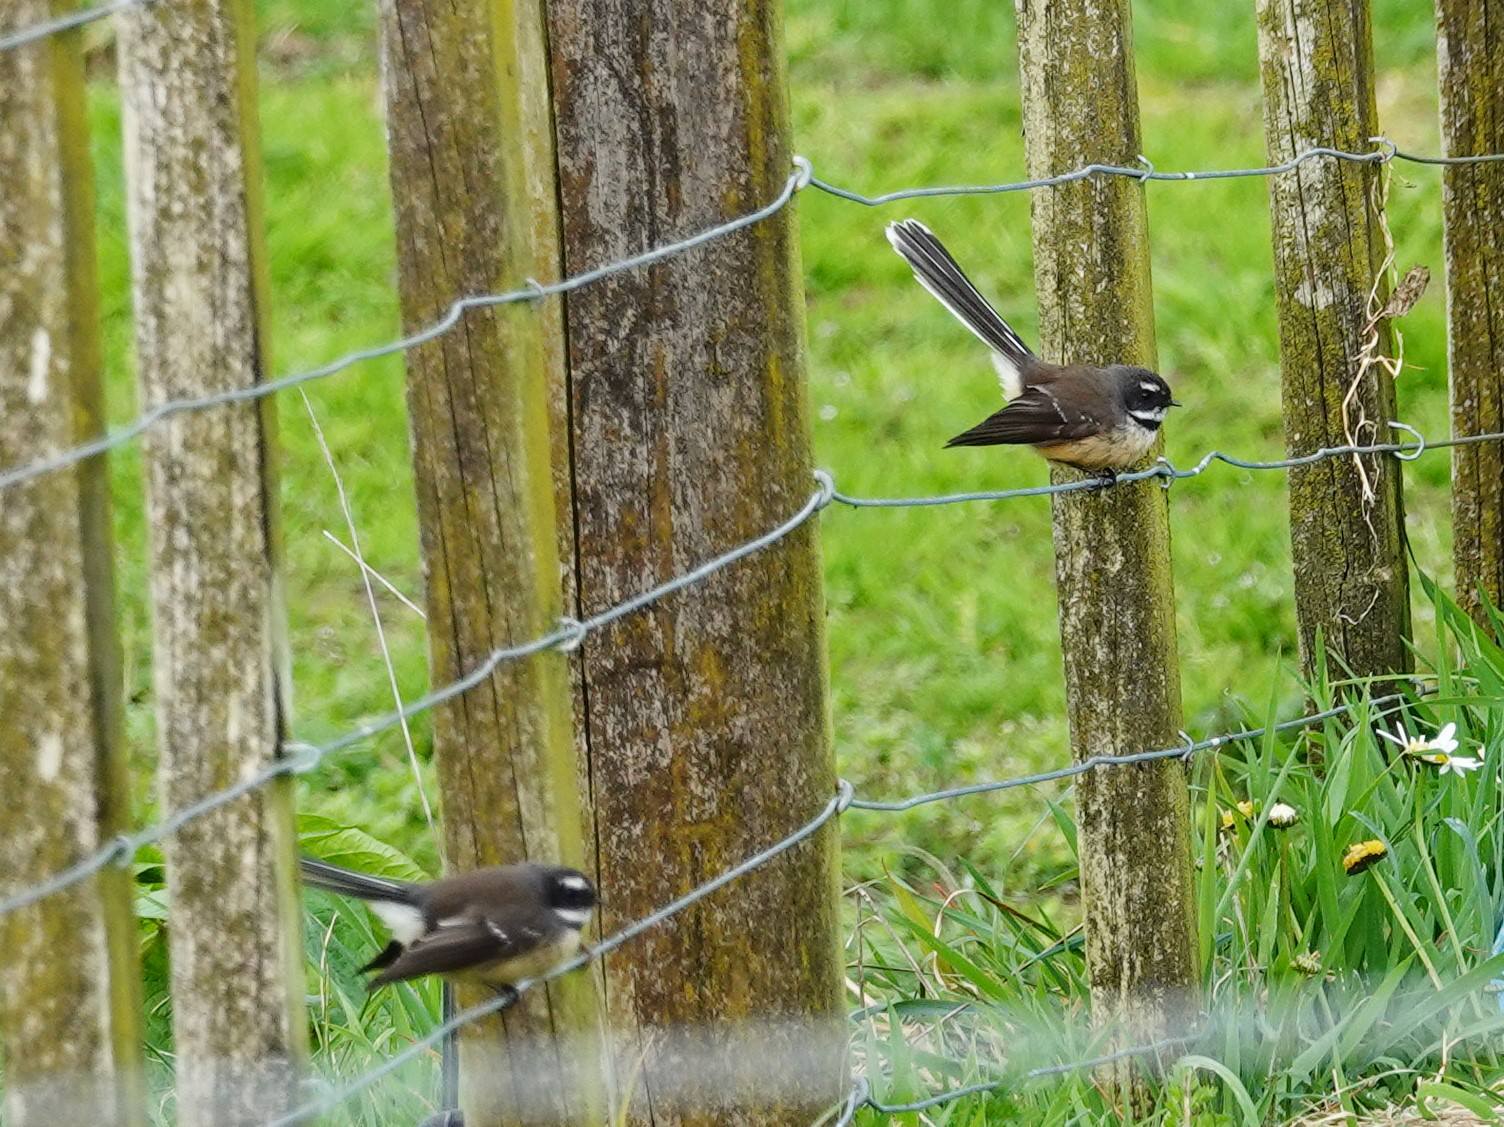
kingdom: Animalia
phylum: Chordata
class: Aves
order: Passeriformes
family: Rhipiduridae
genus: Rhipidura
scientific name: Rhipidura fuliginosa
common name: New zealand fantail
